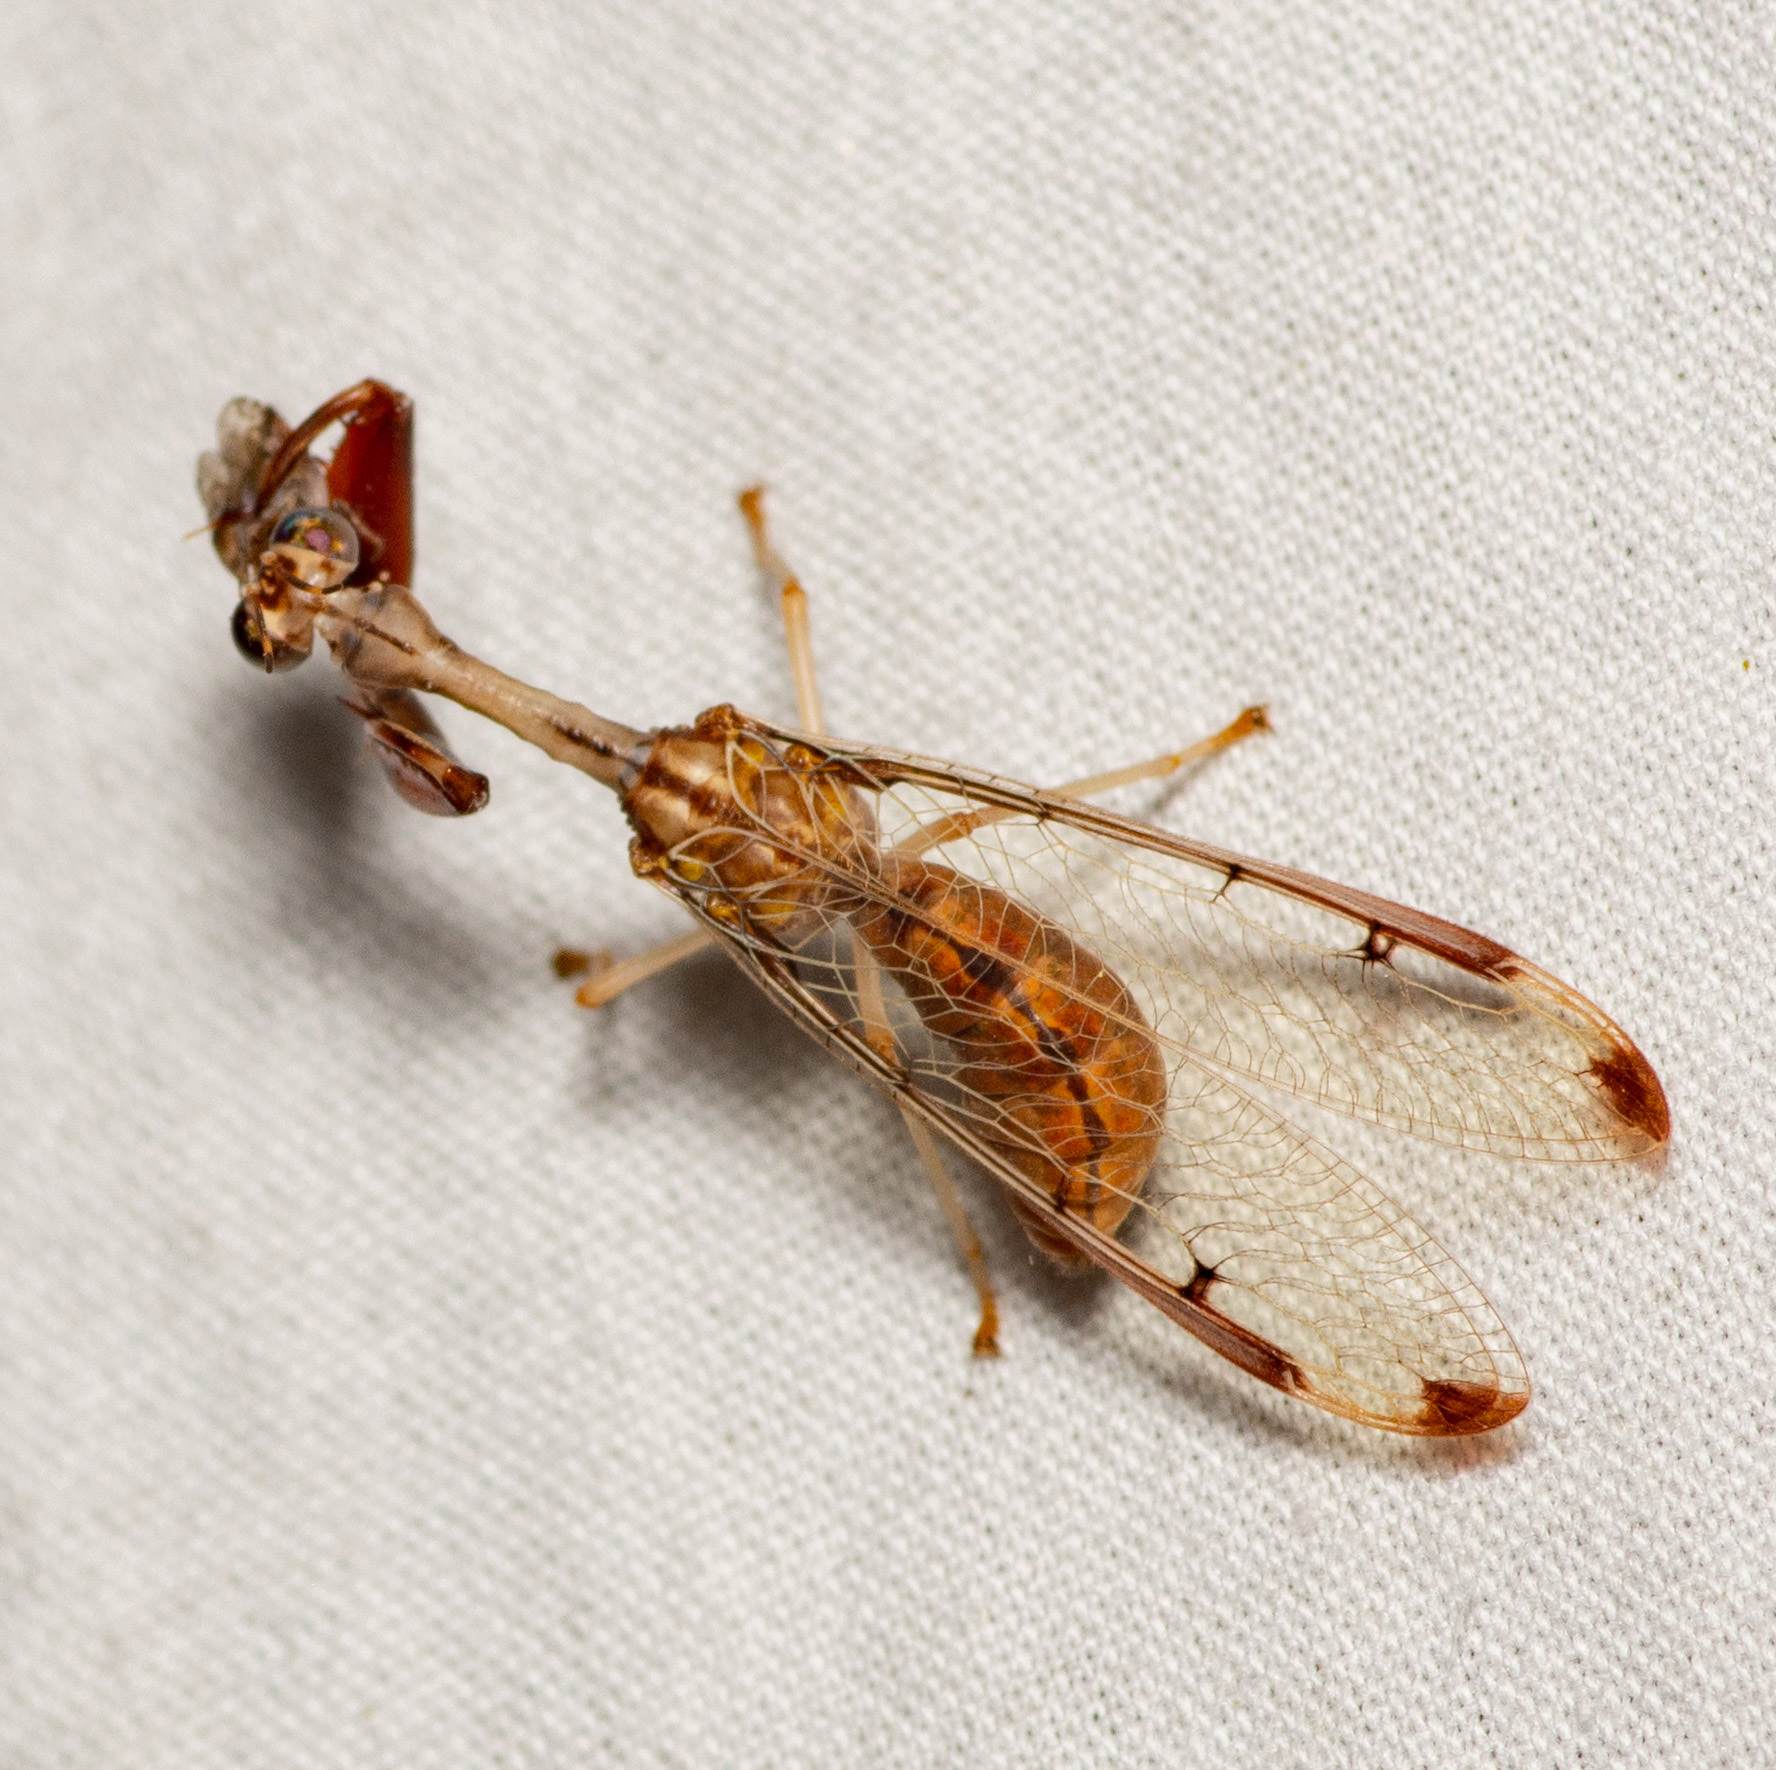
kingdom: Animalia
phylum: Arthropoda
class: Insecta
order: Neuroptera
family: Mantispidae
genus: Dicromantispa
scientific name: Dicromantispa interrupta
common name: Four-spotted mantidfly
